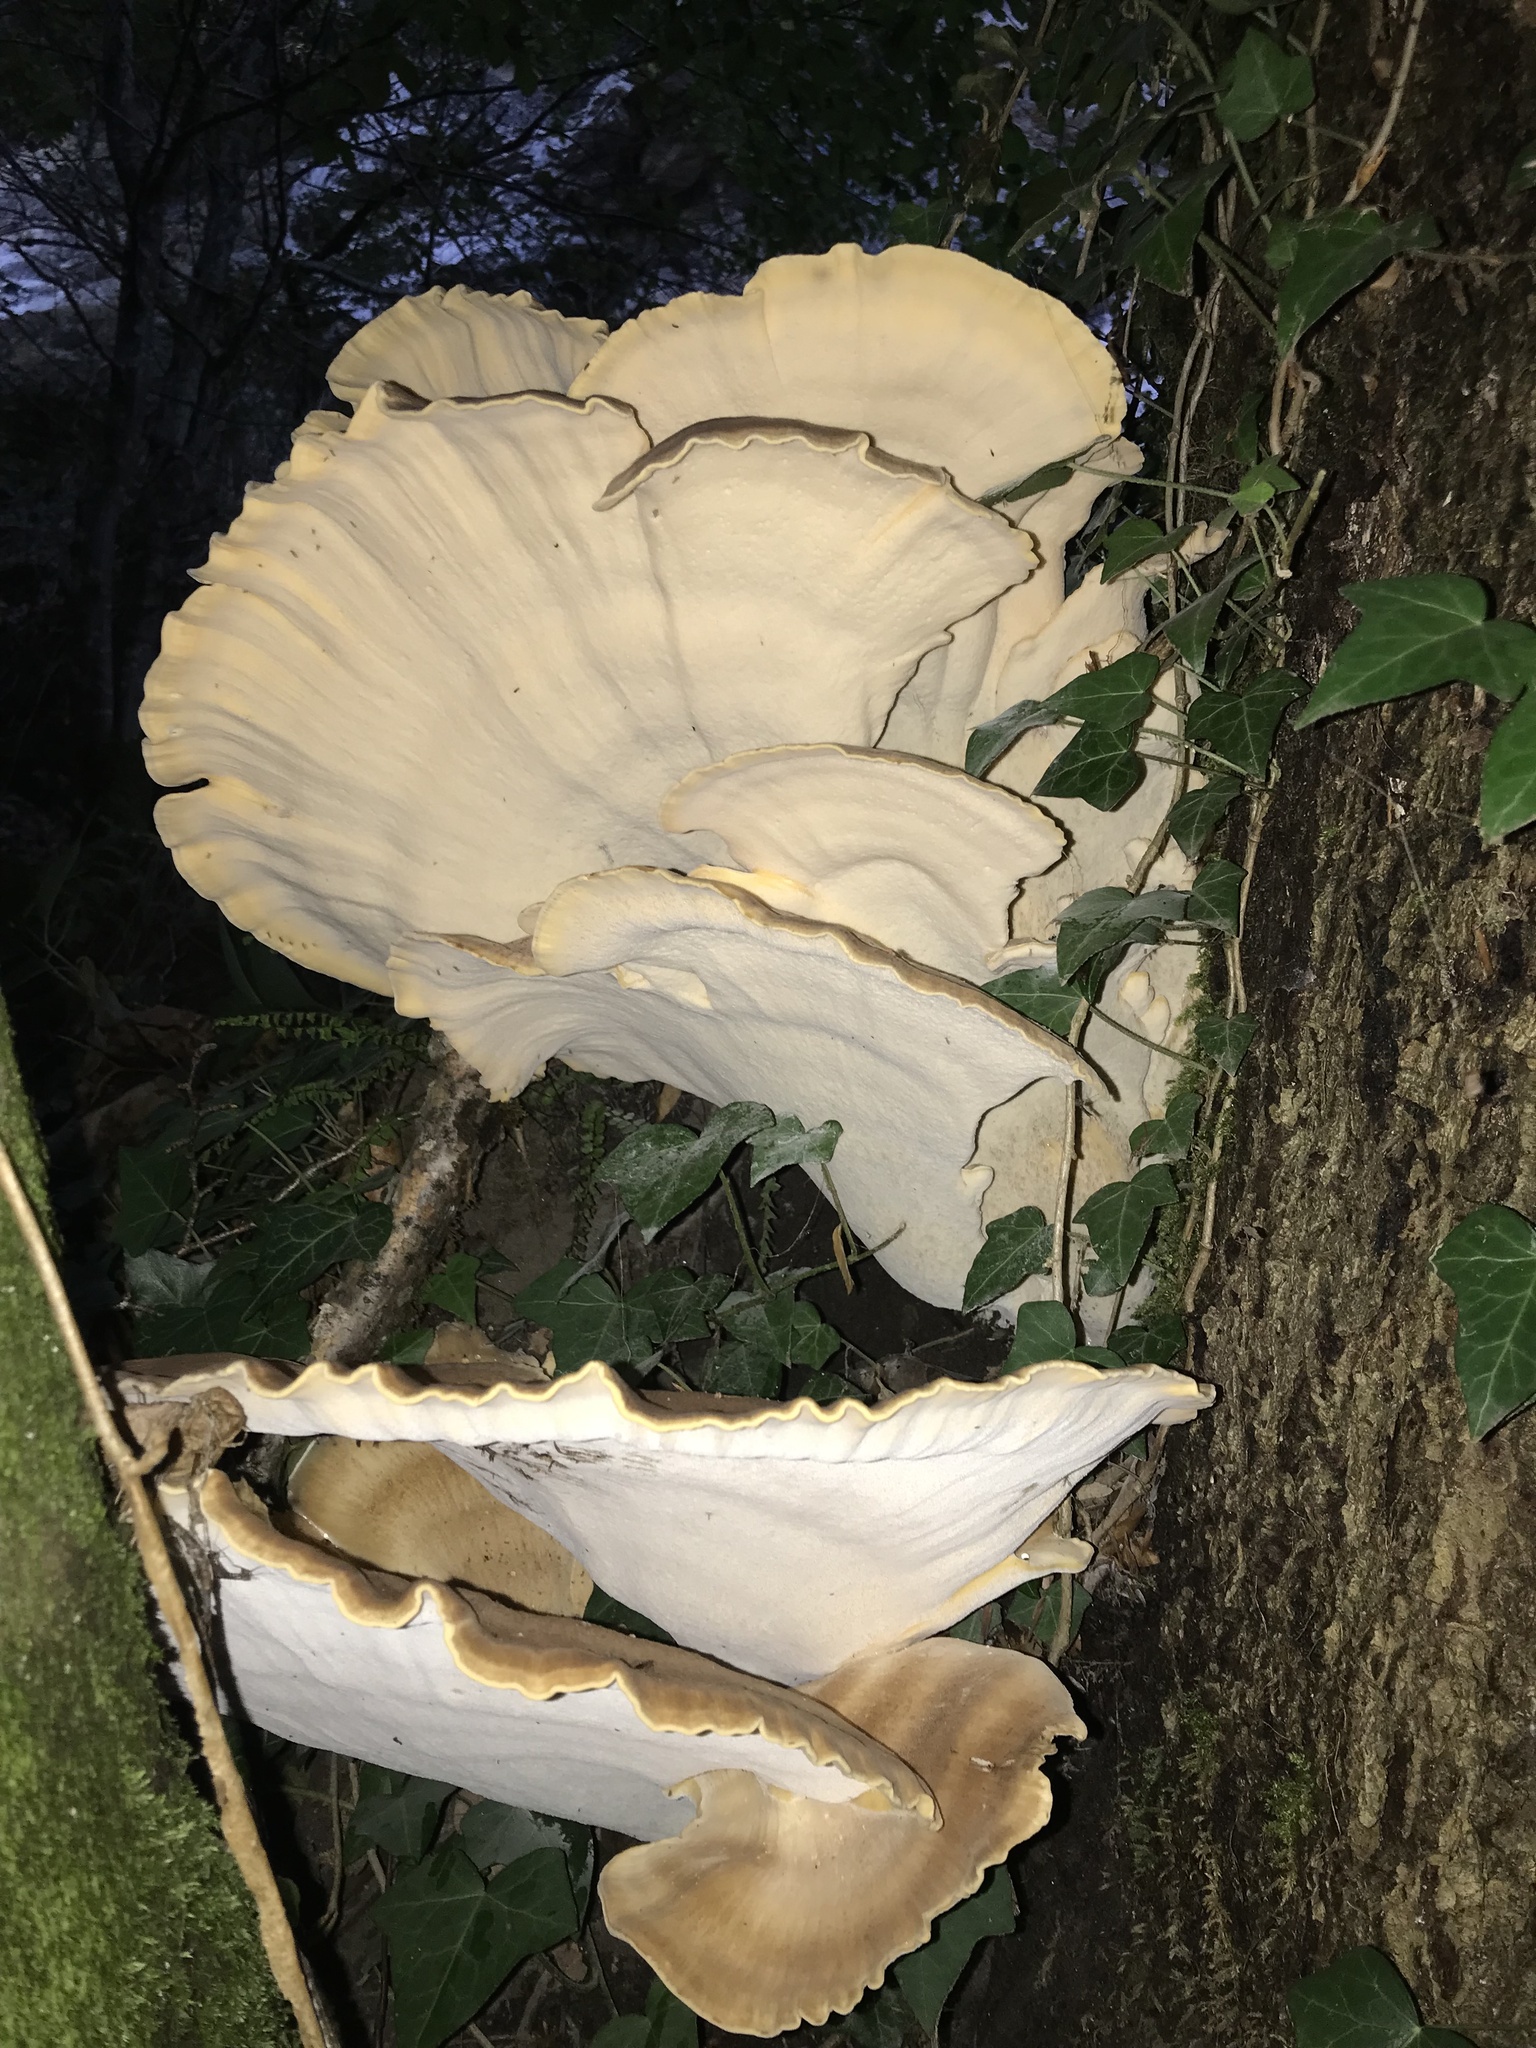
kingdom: Fungi
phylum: Basidiomycota
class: Agaricomycetes
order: Polyporales
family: Meripilaceae
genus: Meripilus
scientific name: Meripilus giganteus
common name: Giant polypore
